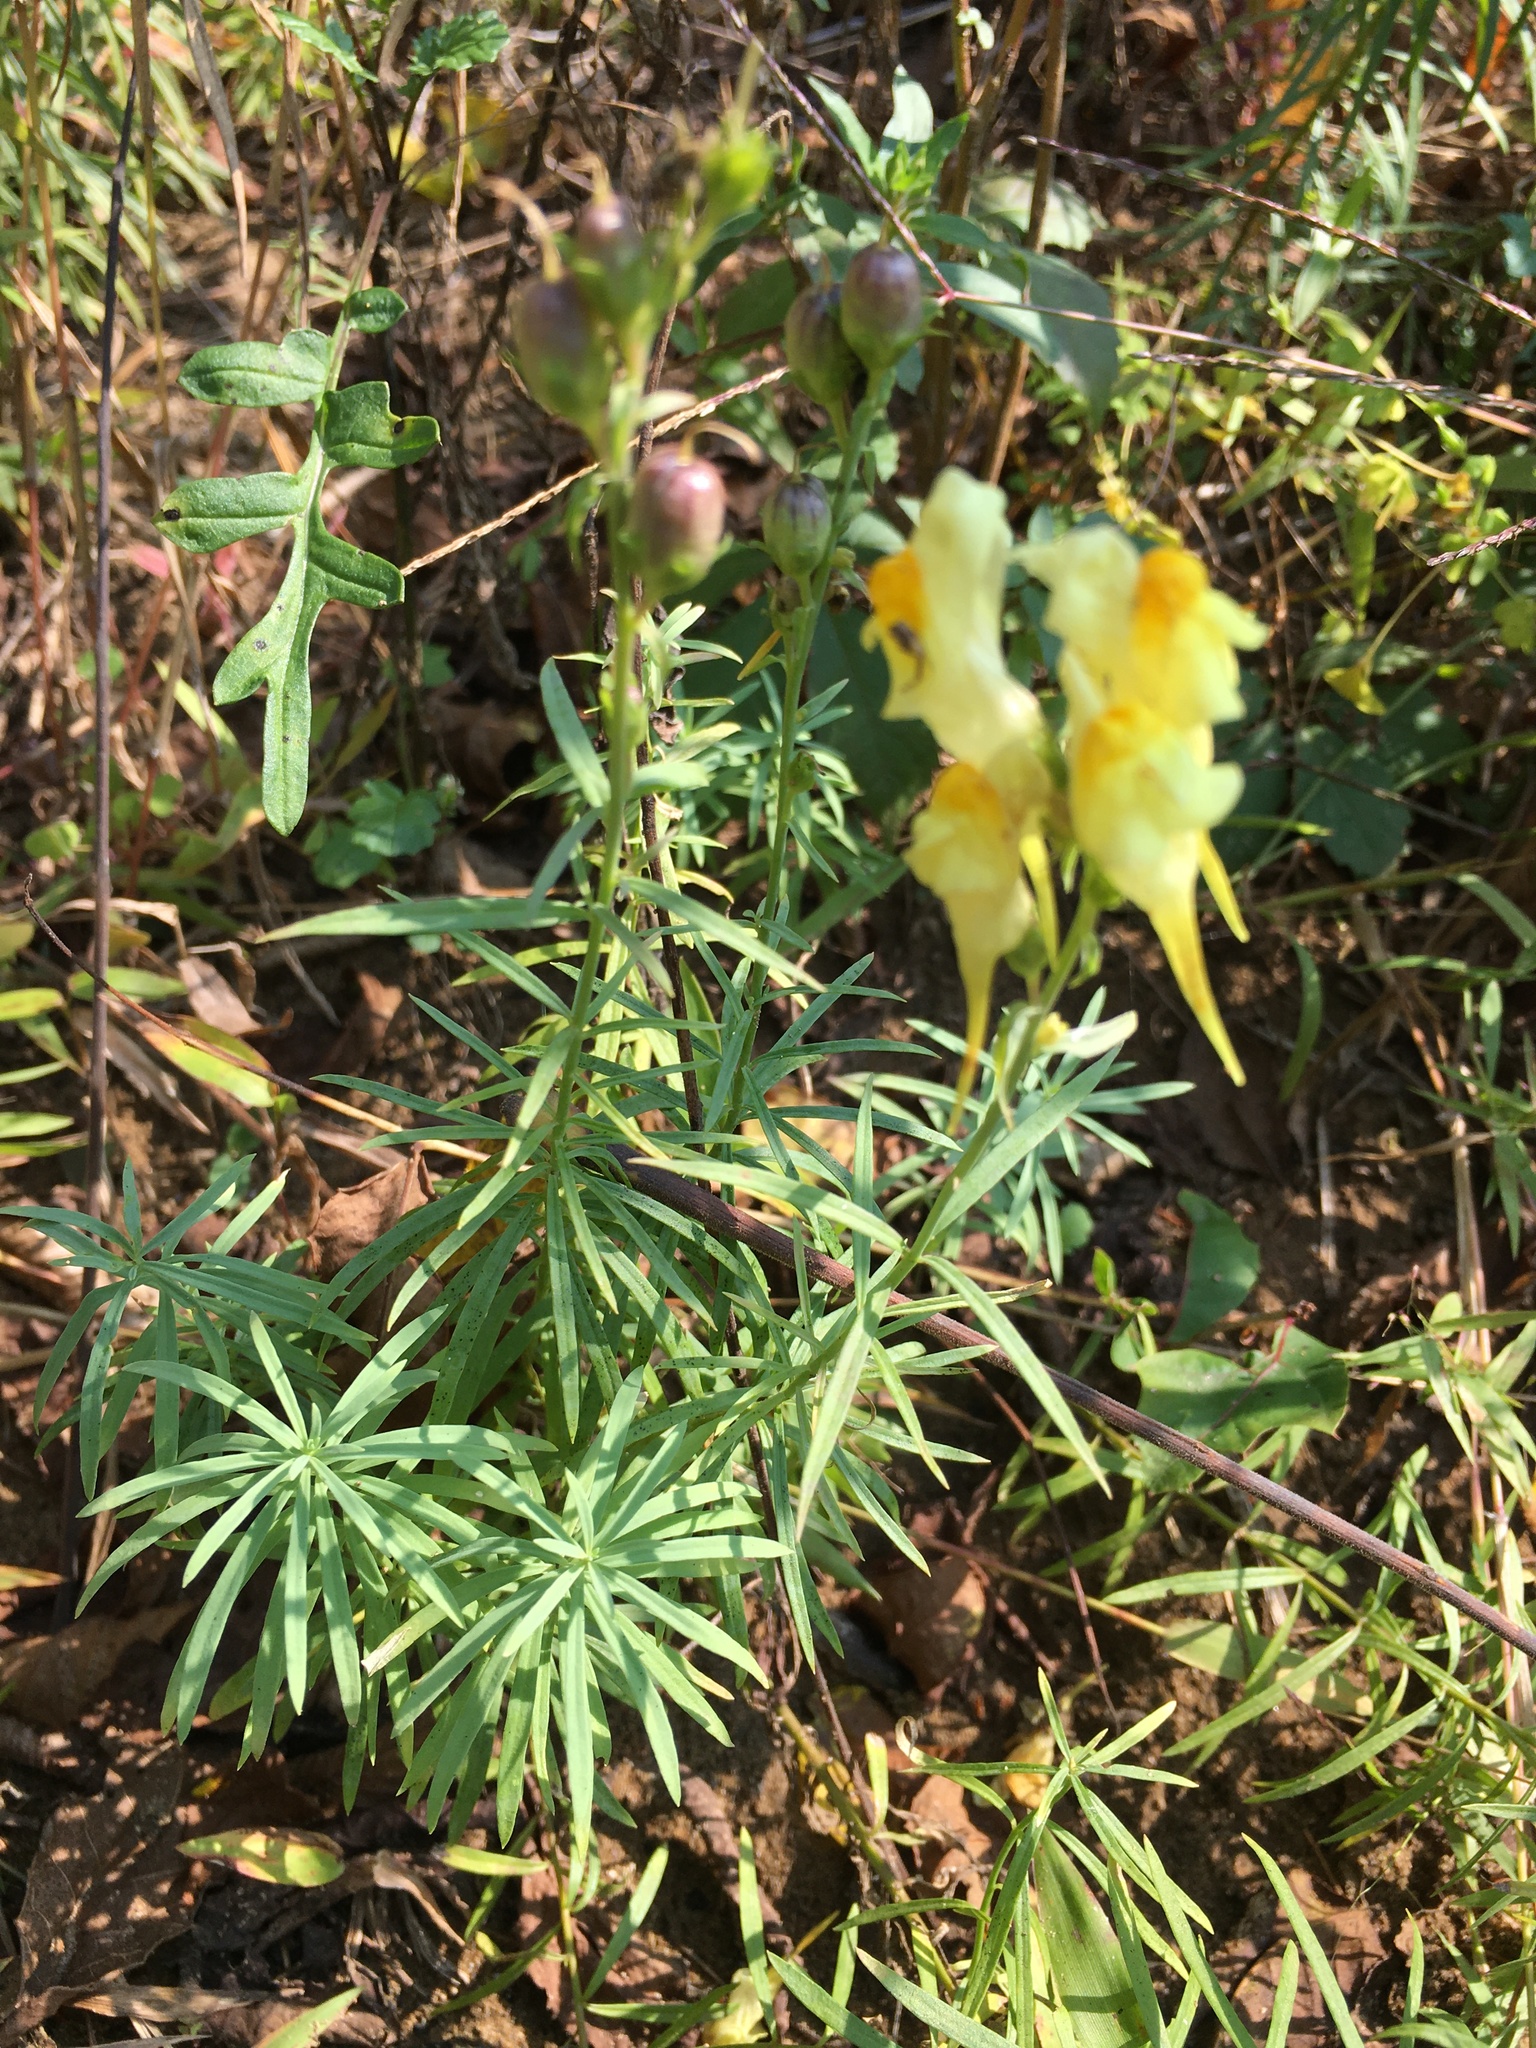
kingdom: Plantae
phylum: Tracheophyta
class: Magnoliopsida
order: Lamiales
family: Plantaginaceae
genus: Linaria
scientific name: Linaria vulgaris
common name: Butter and eggs
